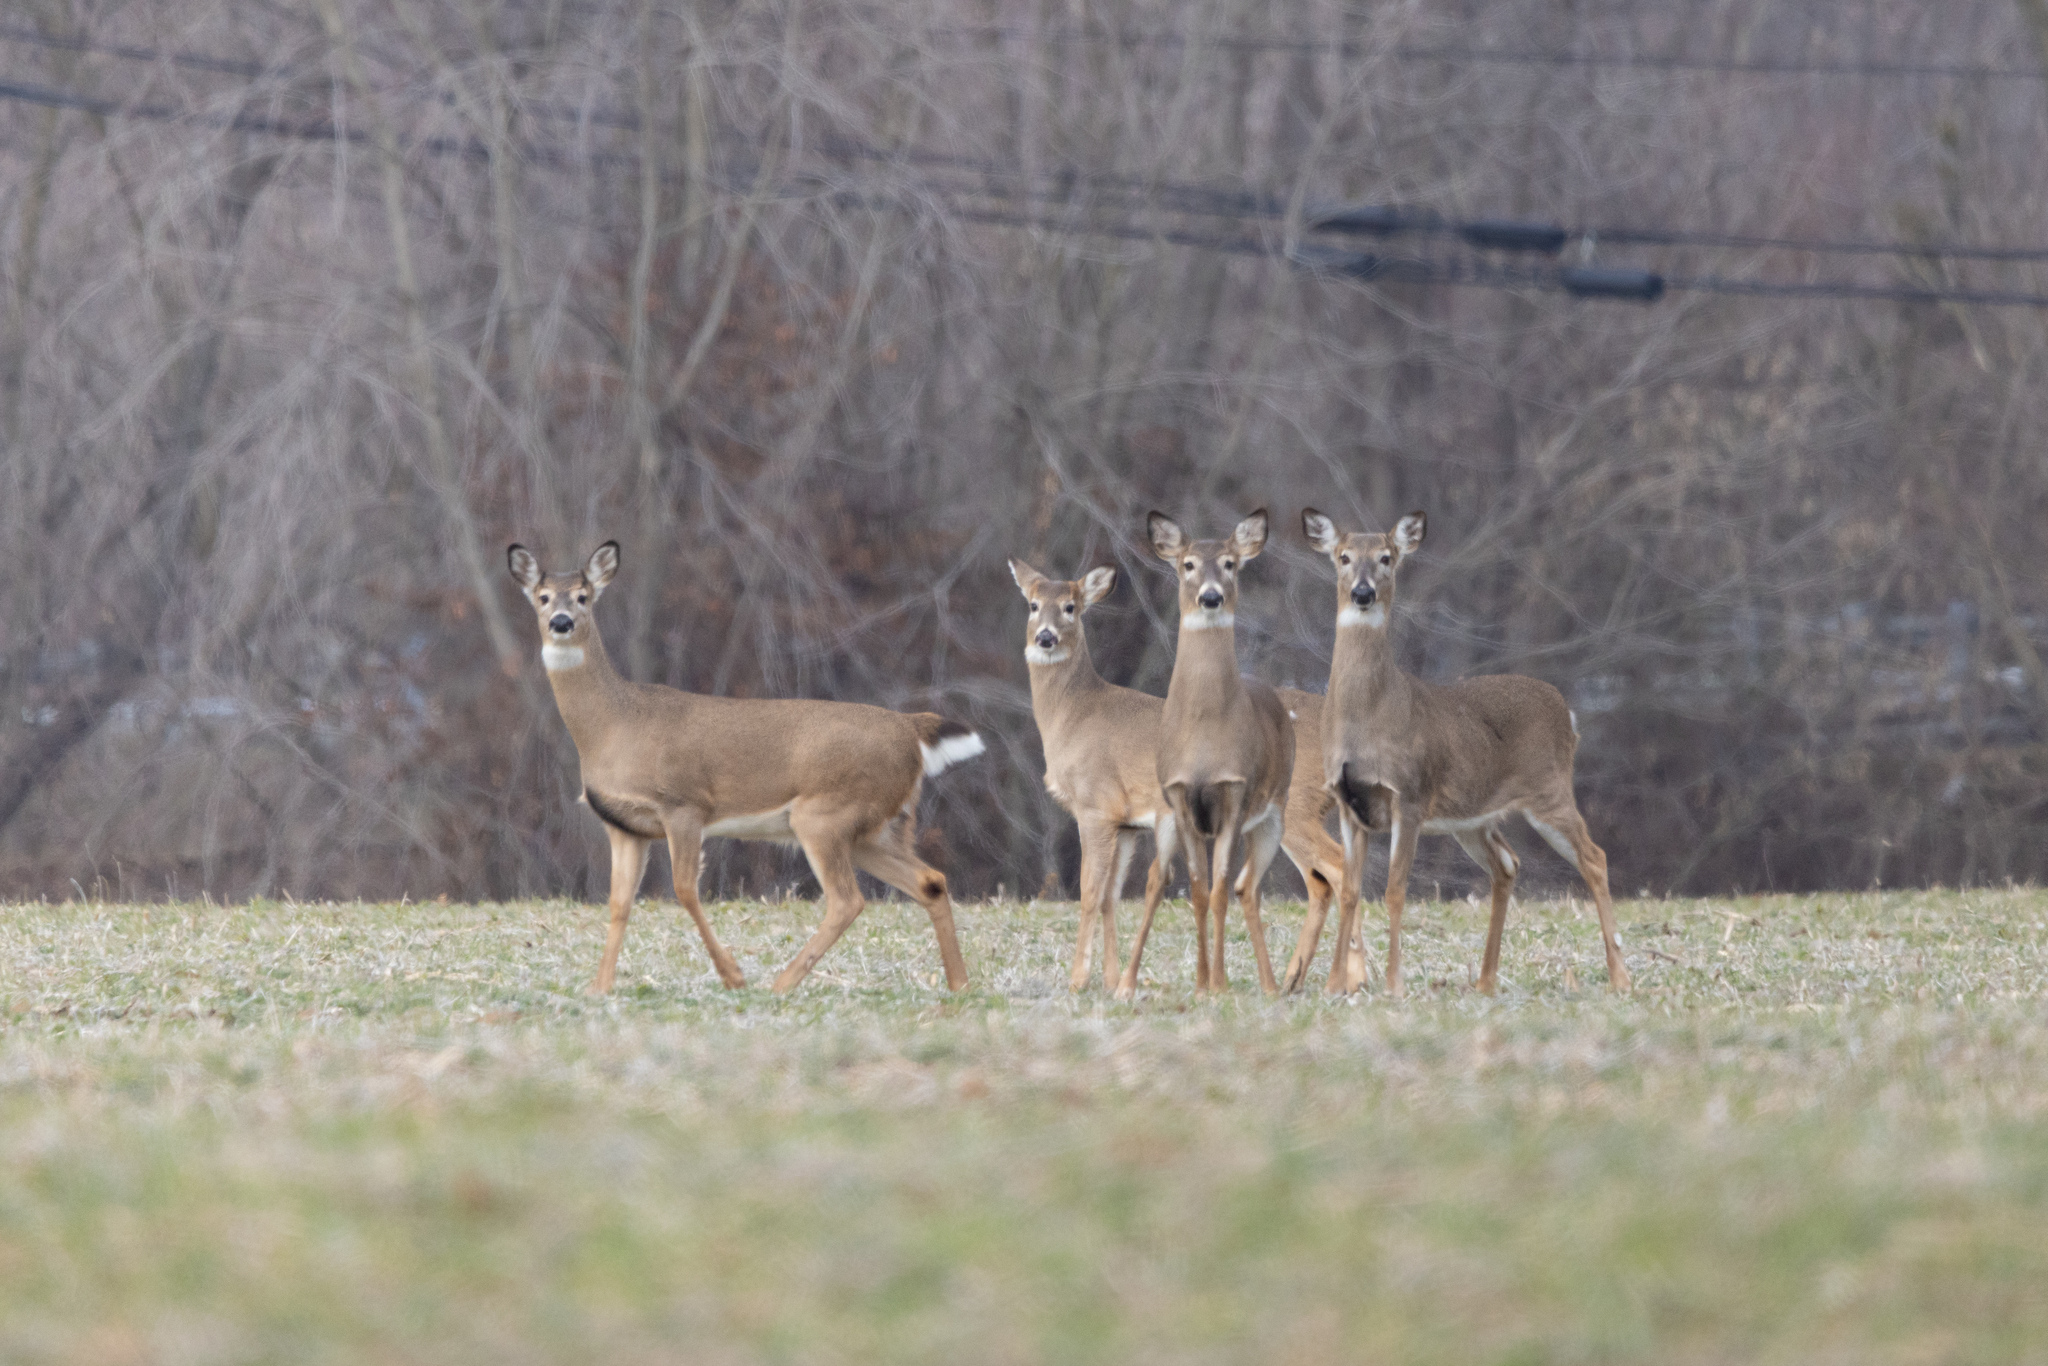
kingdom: Animalia
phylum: Chordata
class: Mammalia
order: Artiodactyla
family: Cervidae
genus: Odocoileus
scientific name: Odocoileus virginianus
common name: White-tailed deer
